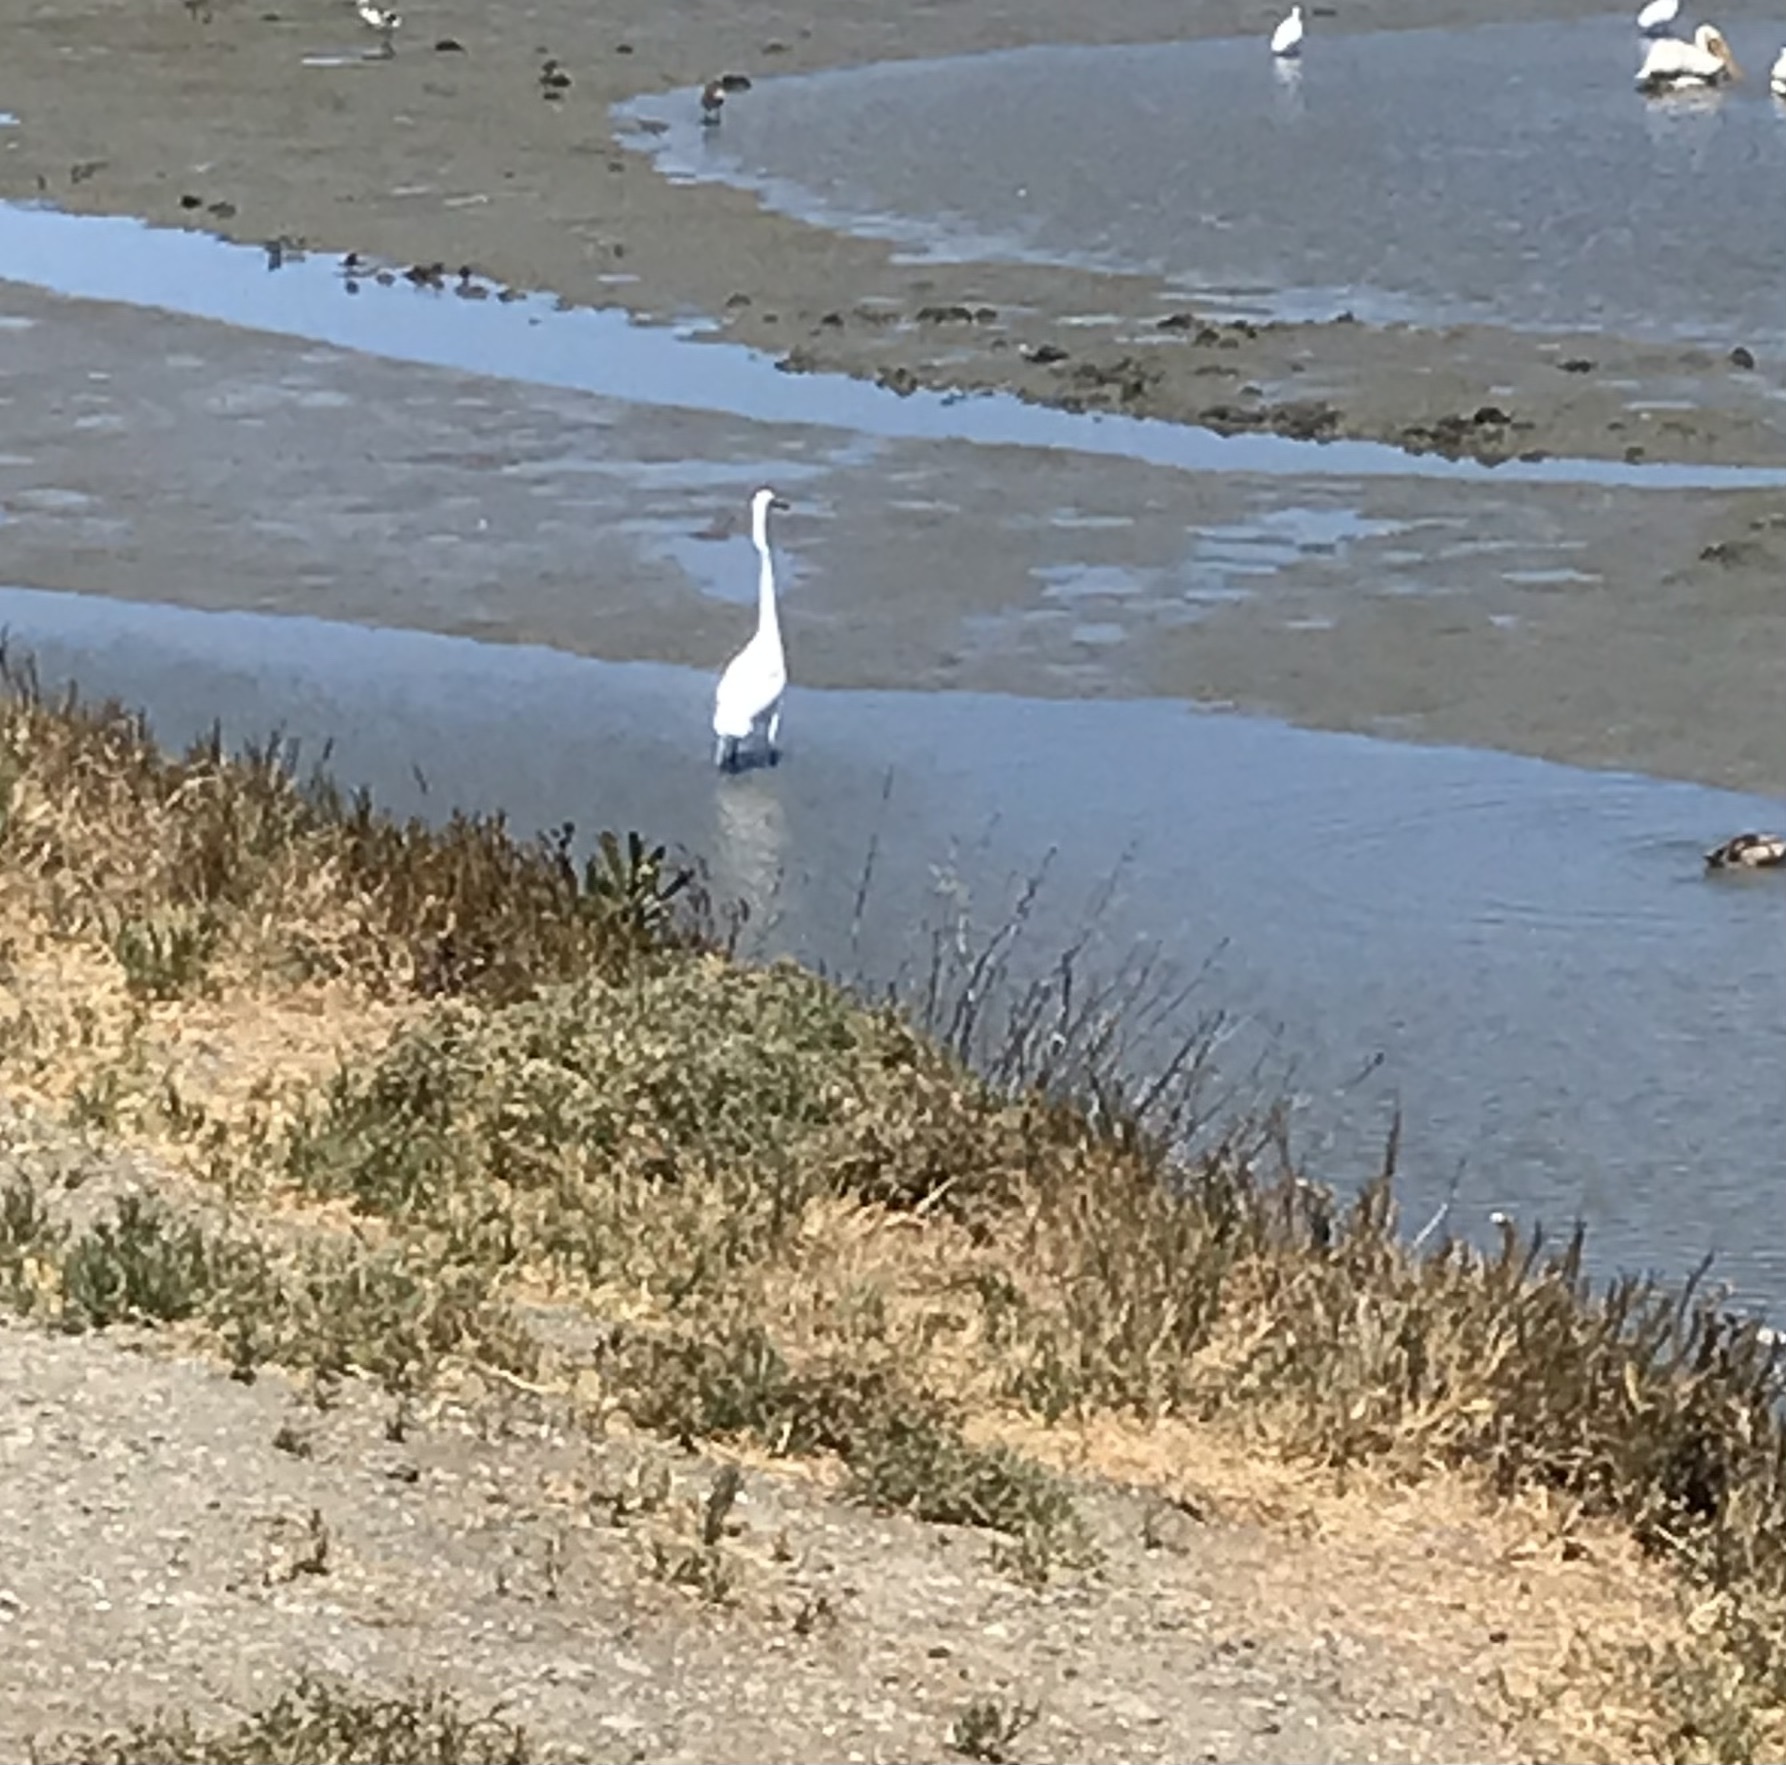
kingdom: Animalia
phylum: Chordata
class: Aves
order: Pelecaniformes
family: Ardeidae
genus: Ardea
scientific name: Ardea alba
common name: Great egret
